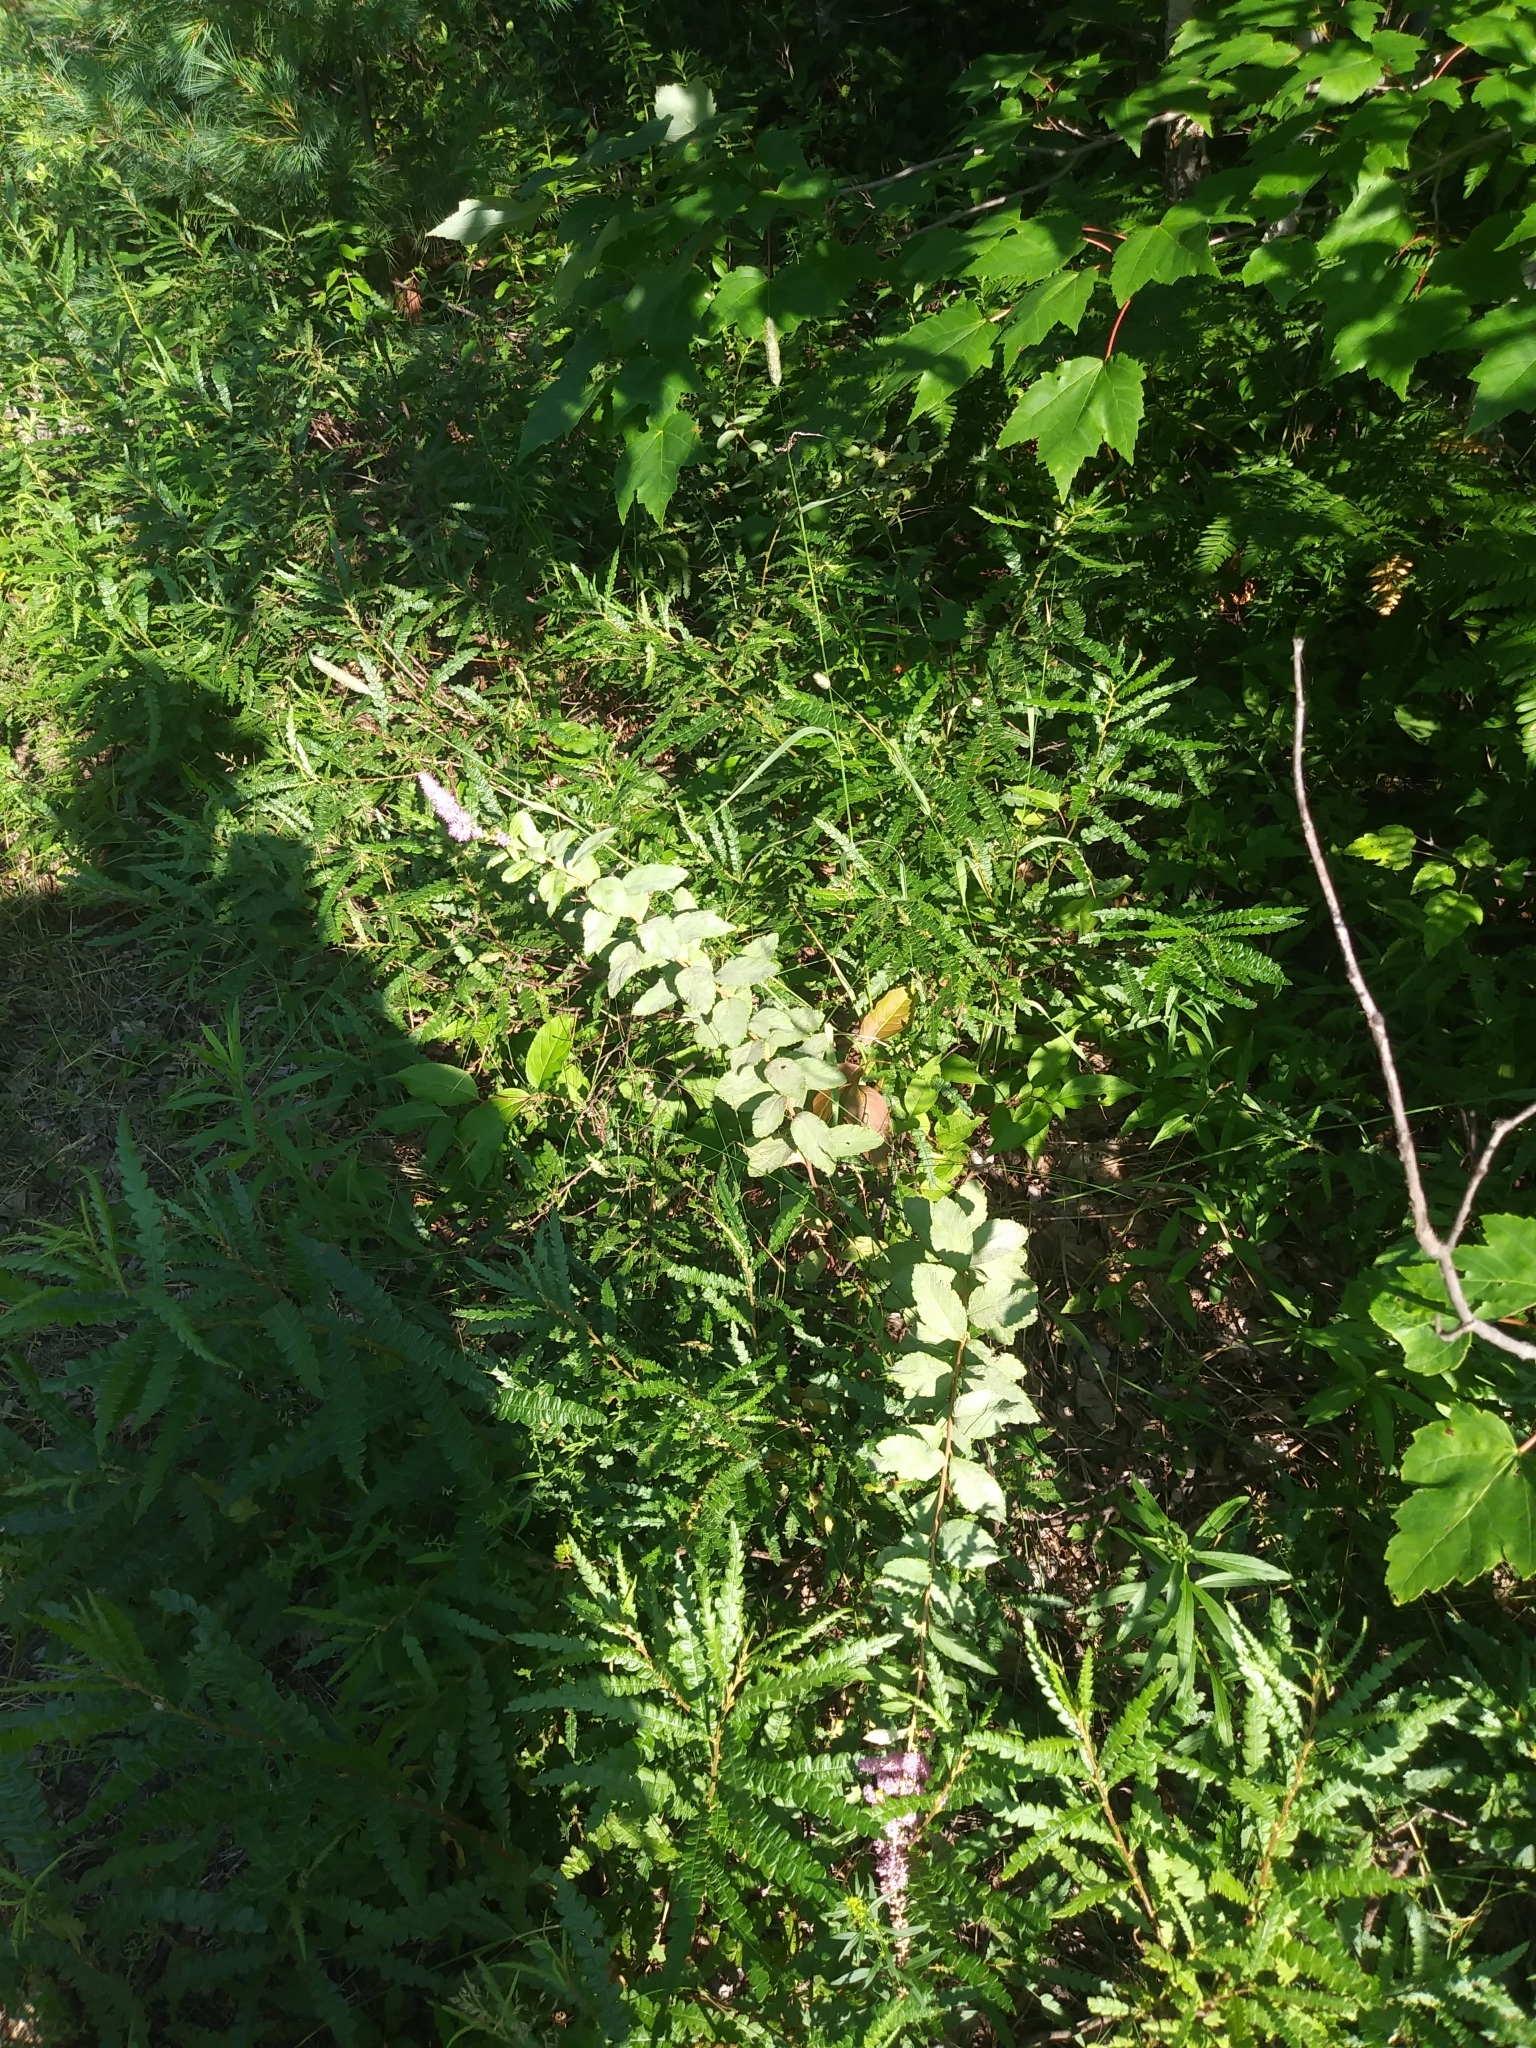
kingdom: Plantae
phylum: Tracheophyta
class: Magnoliopsida
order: Rosales
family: Rosaceae
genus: Spiraea
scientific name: Spiraea tomentosa
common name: Hardhack
